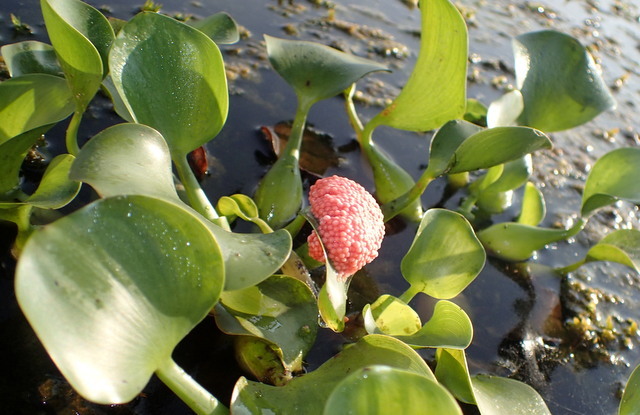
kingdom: Animalia
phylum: Mollusca
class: Gastropoda
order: Architaenioglossa
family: Ampullariidae
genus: Pomacea
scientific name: Pomacea maculata
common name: Giant applesnail
